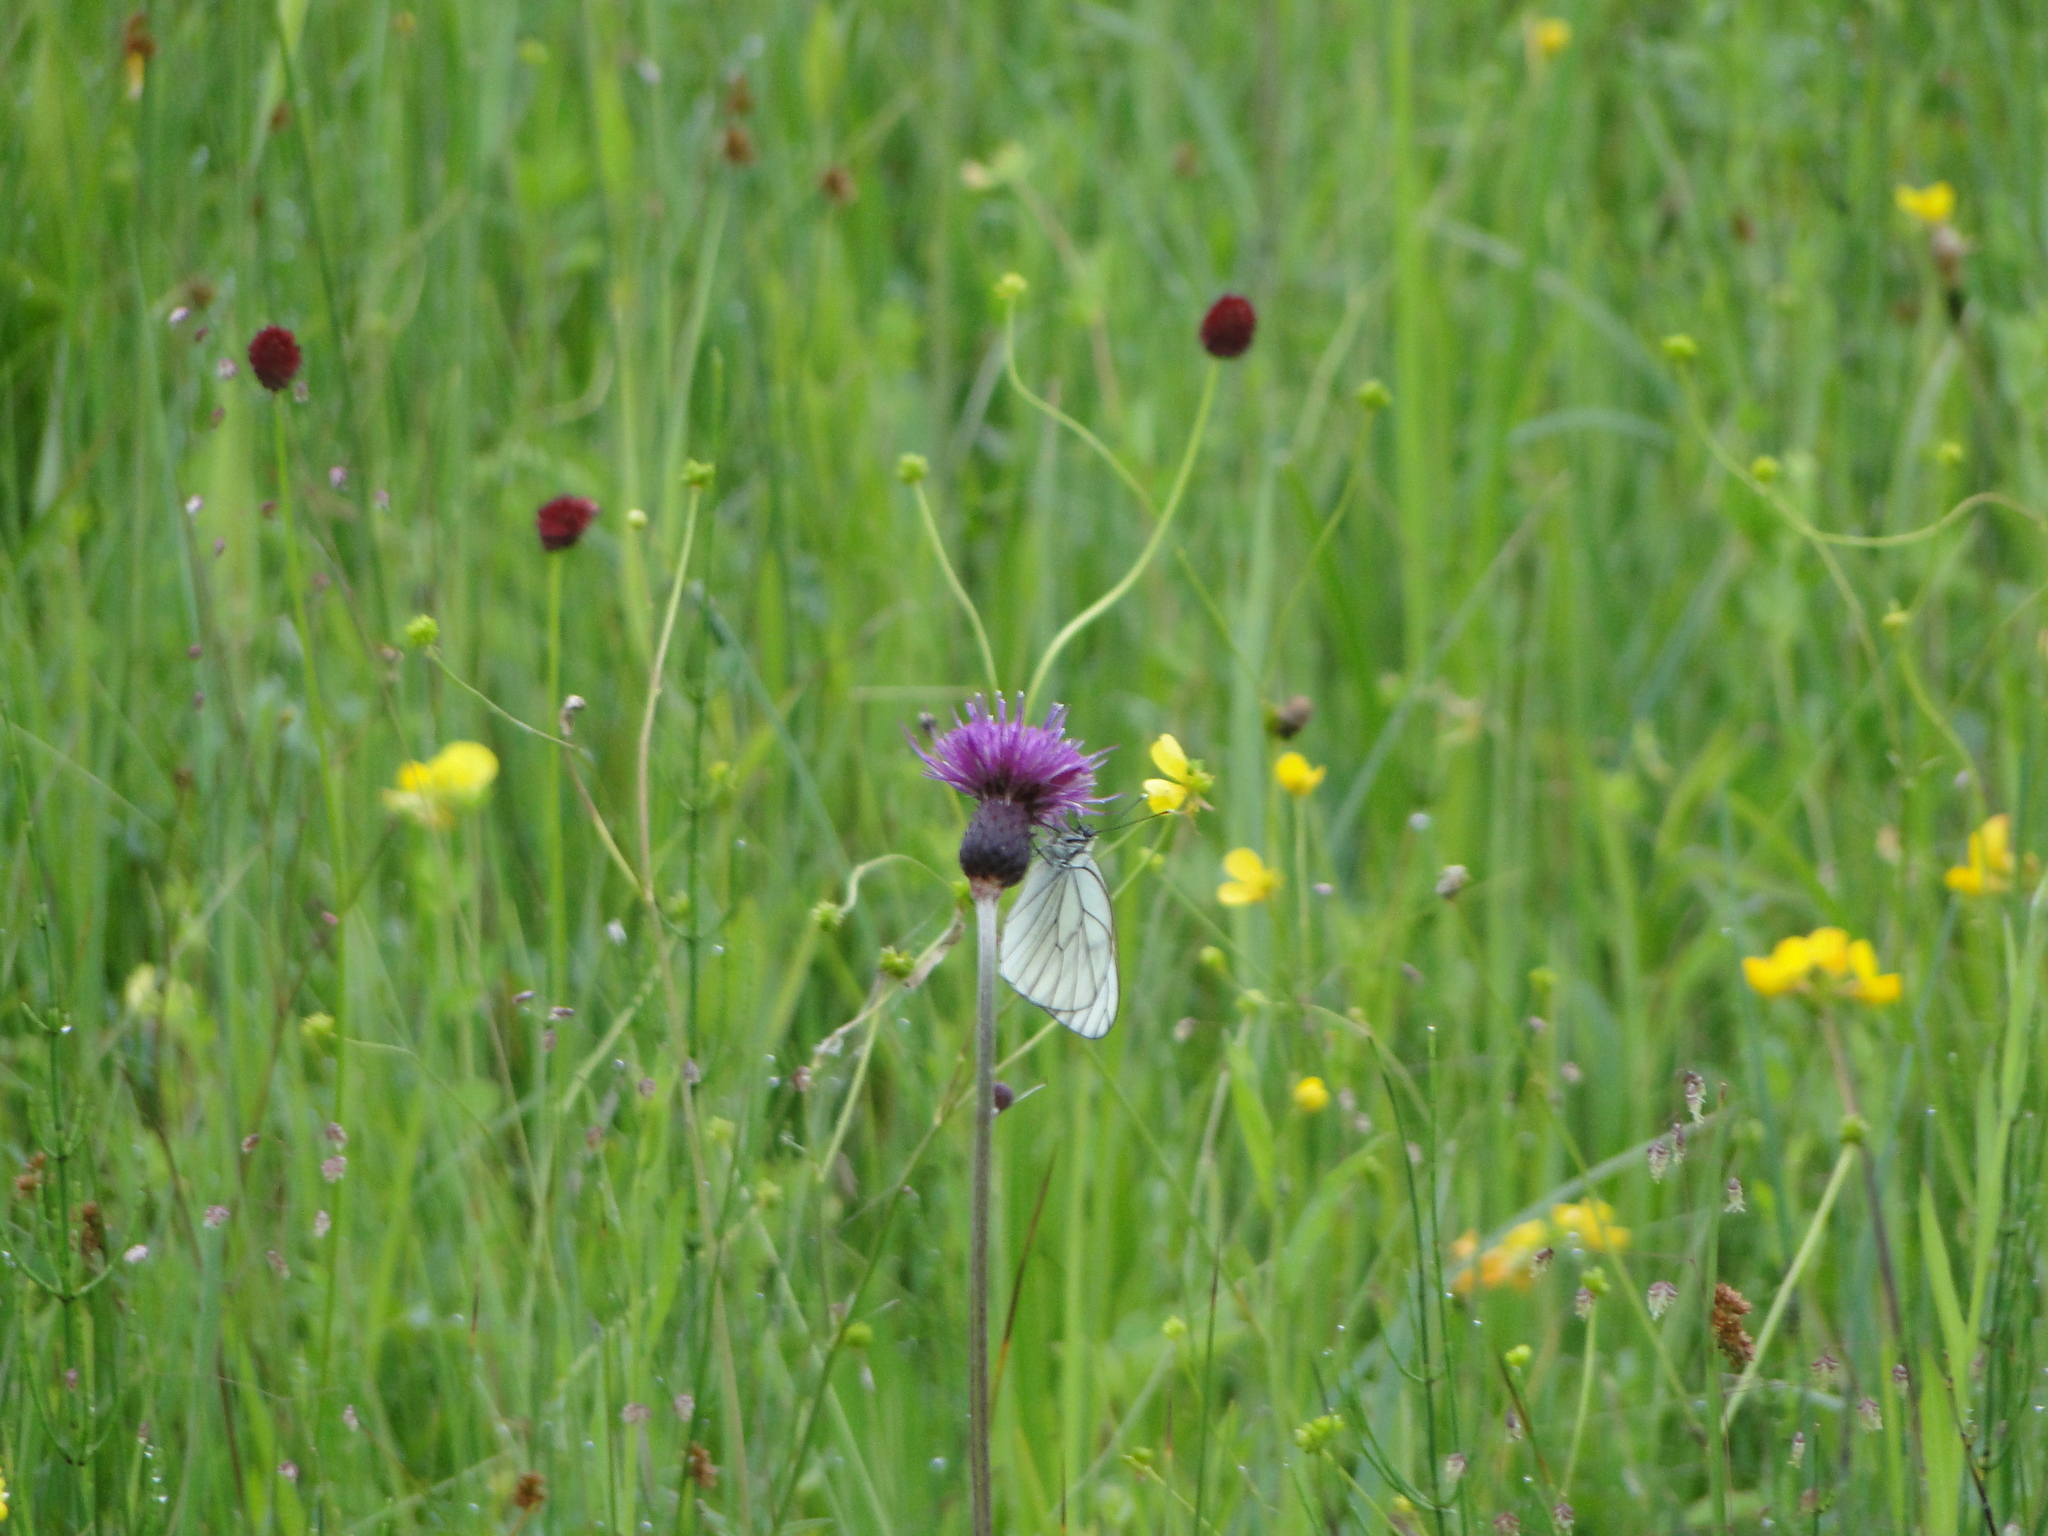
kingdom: Animalia
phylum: Arthropoda
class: Insecta
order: Lepidoptera
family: Pieridae
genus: Aporia
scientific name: Aporia crataegi
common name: Black-veined white
